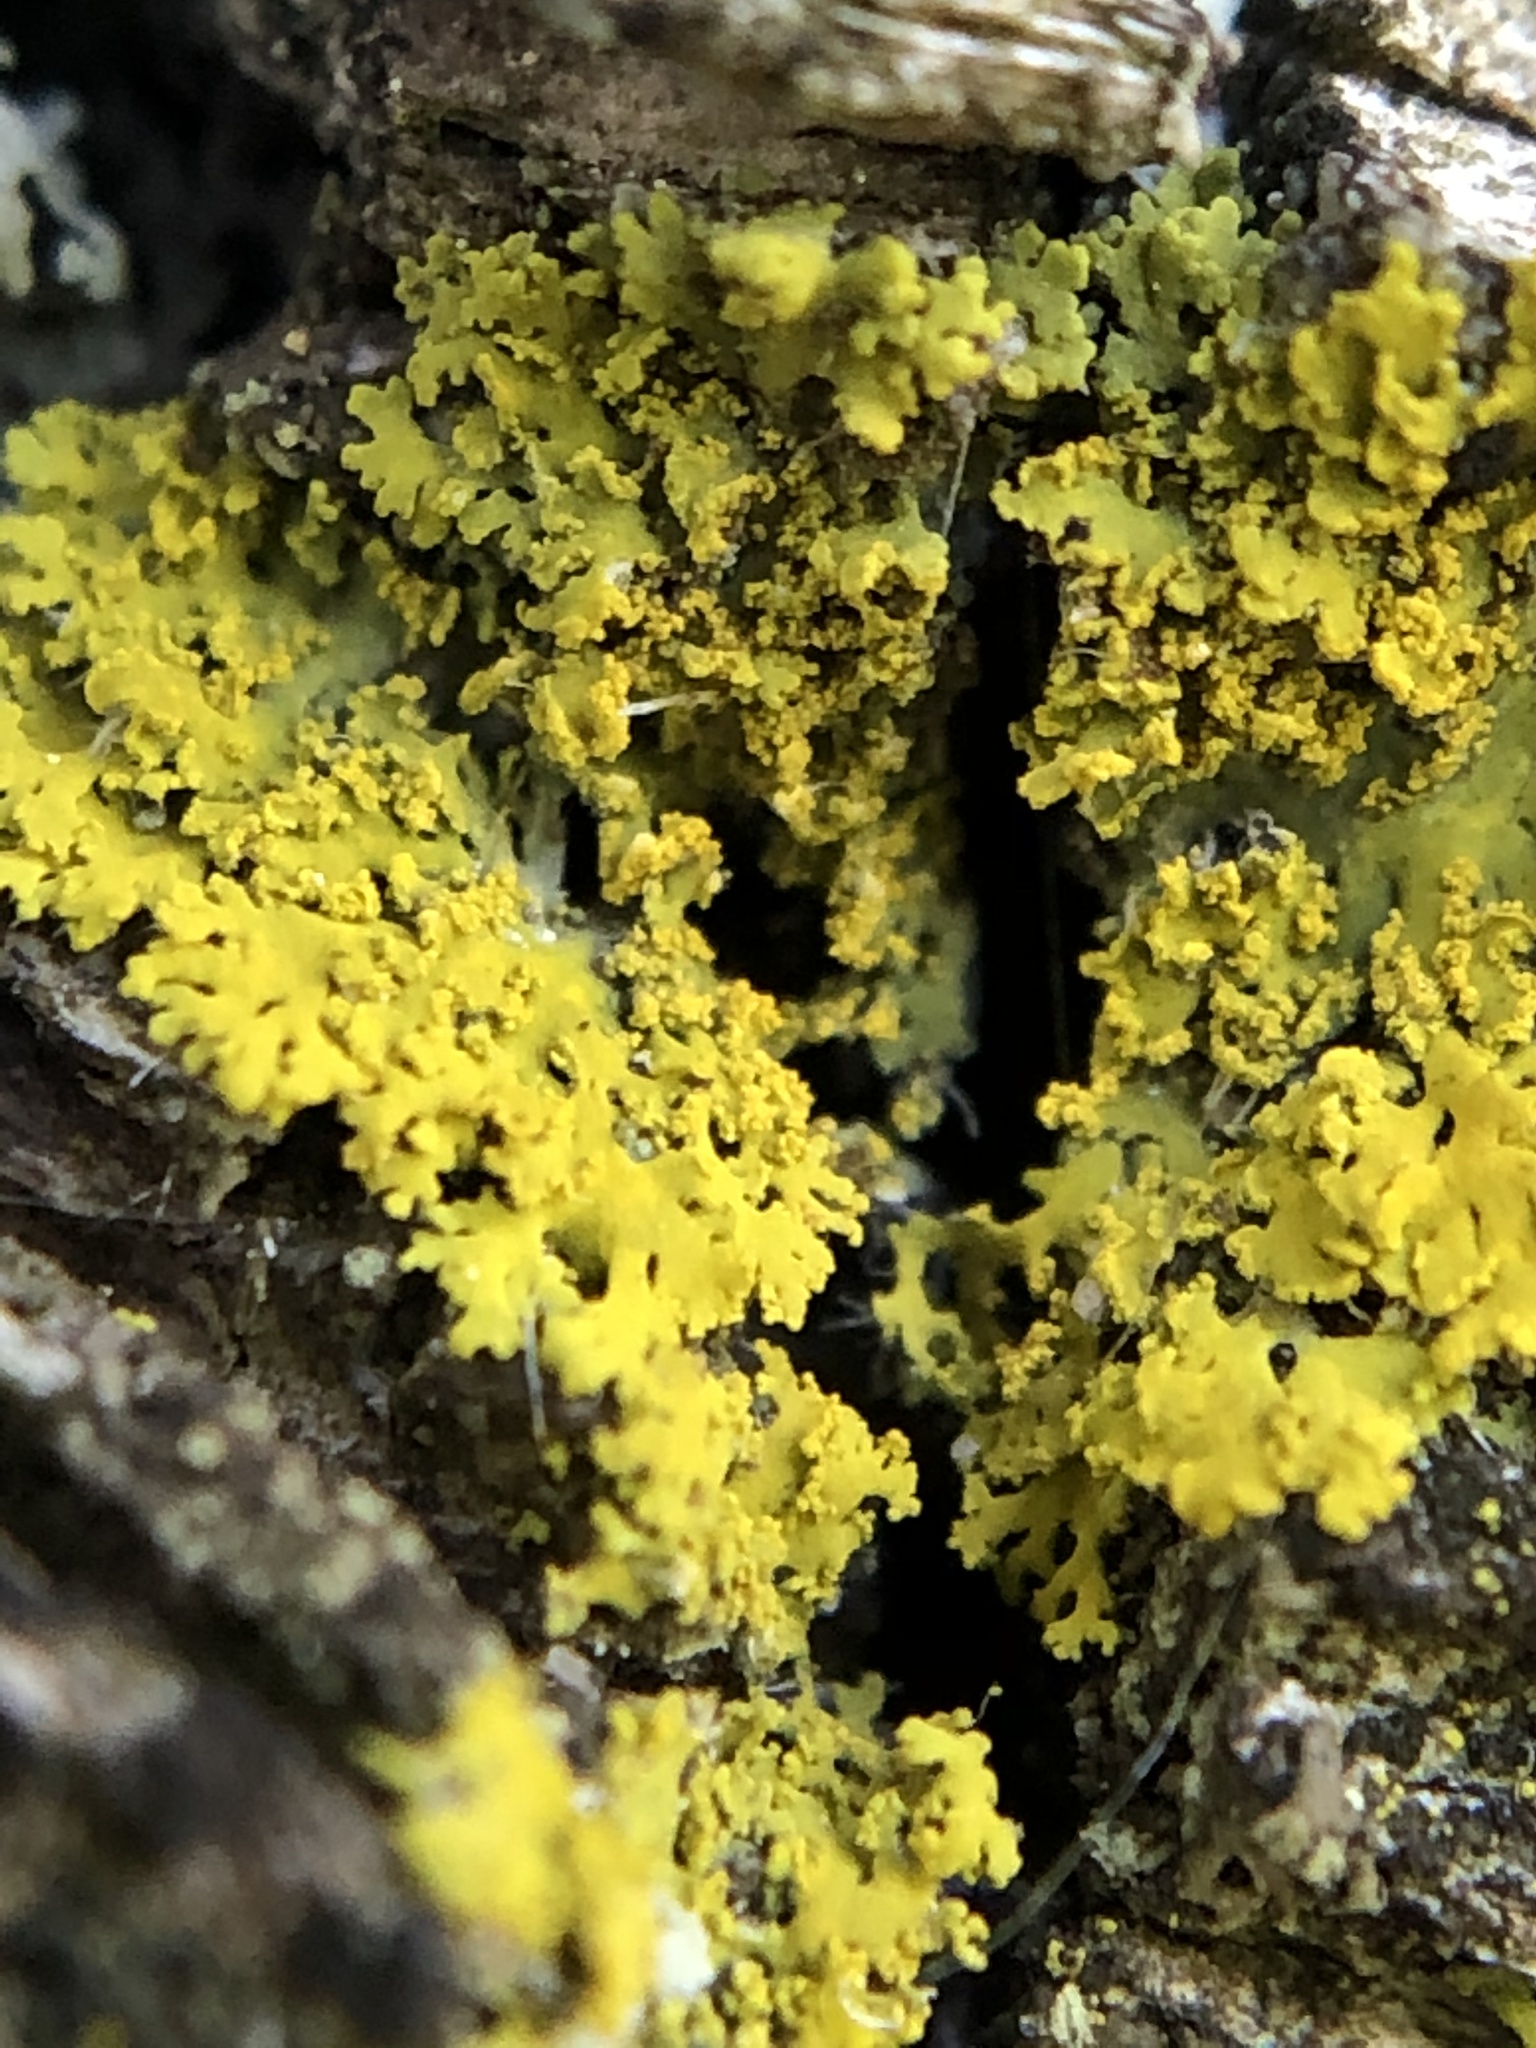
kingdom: Fungi
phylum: Ascomycota
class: Candelariomycetes
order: Candelariales
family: Candelariaceae
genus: Candelaria
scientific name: Candelaria concolor
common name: Candleflame lichen
